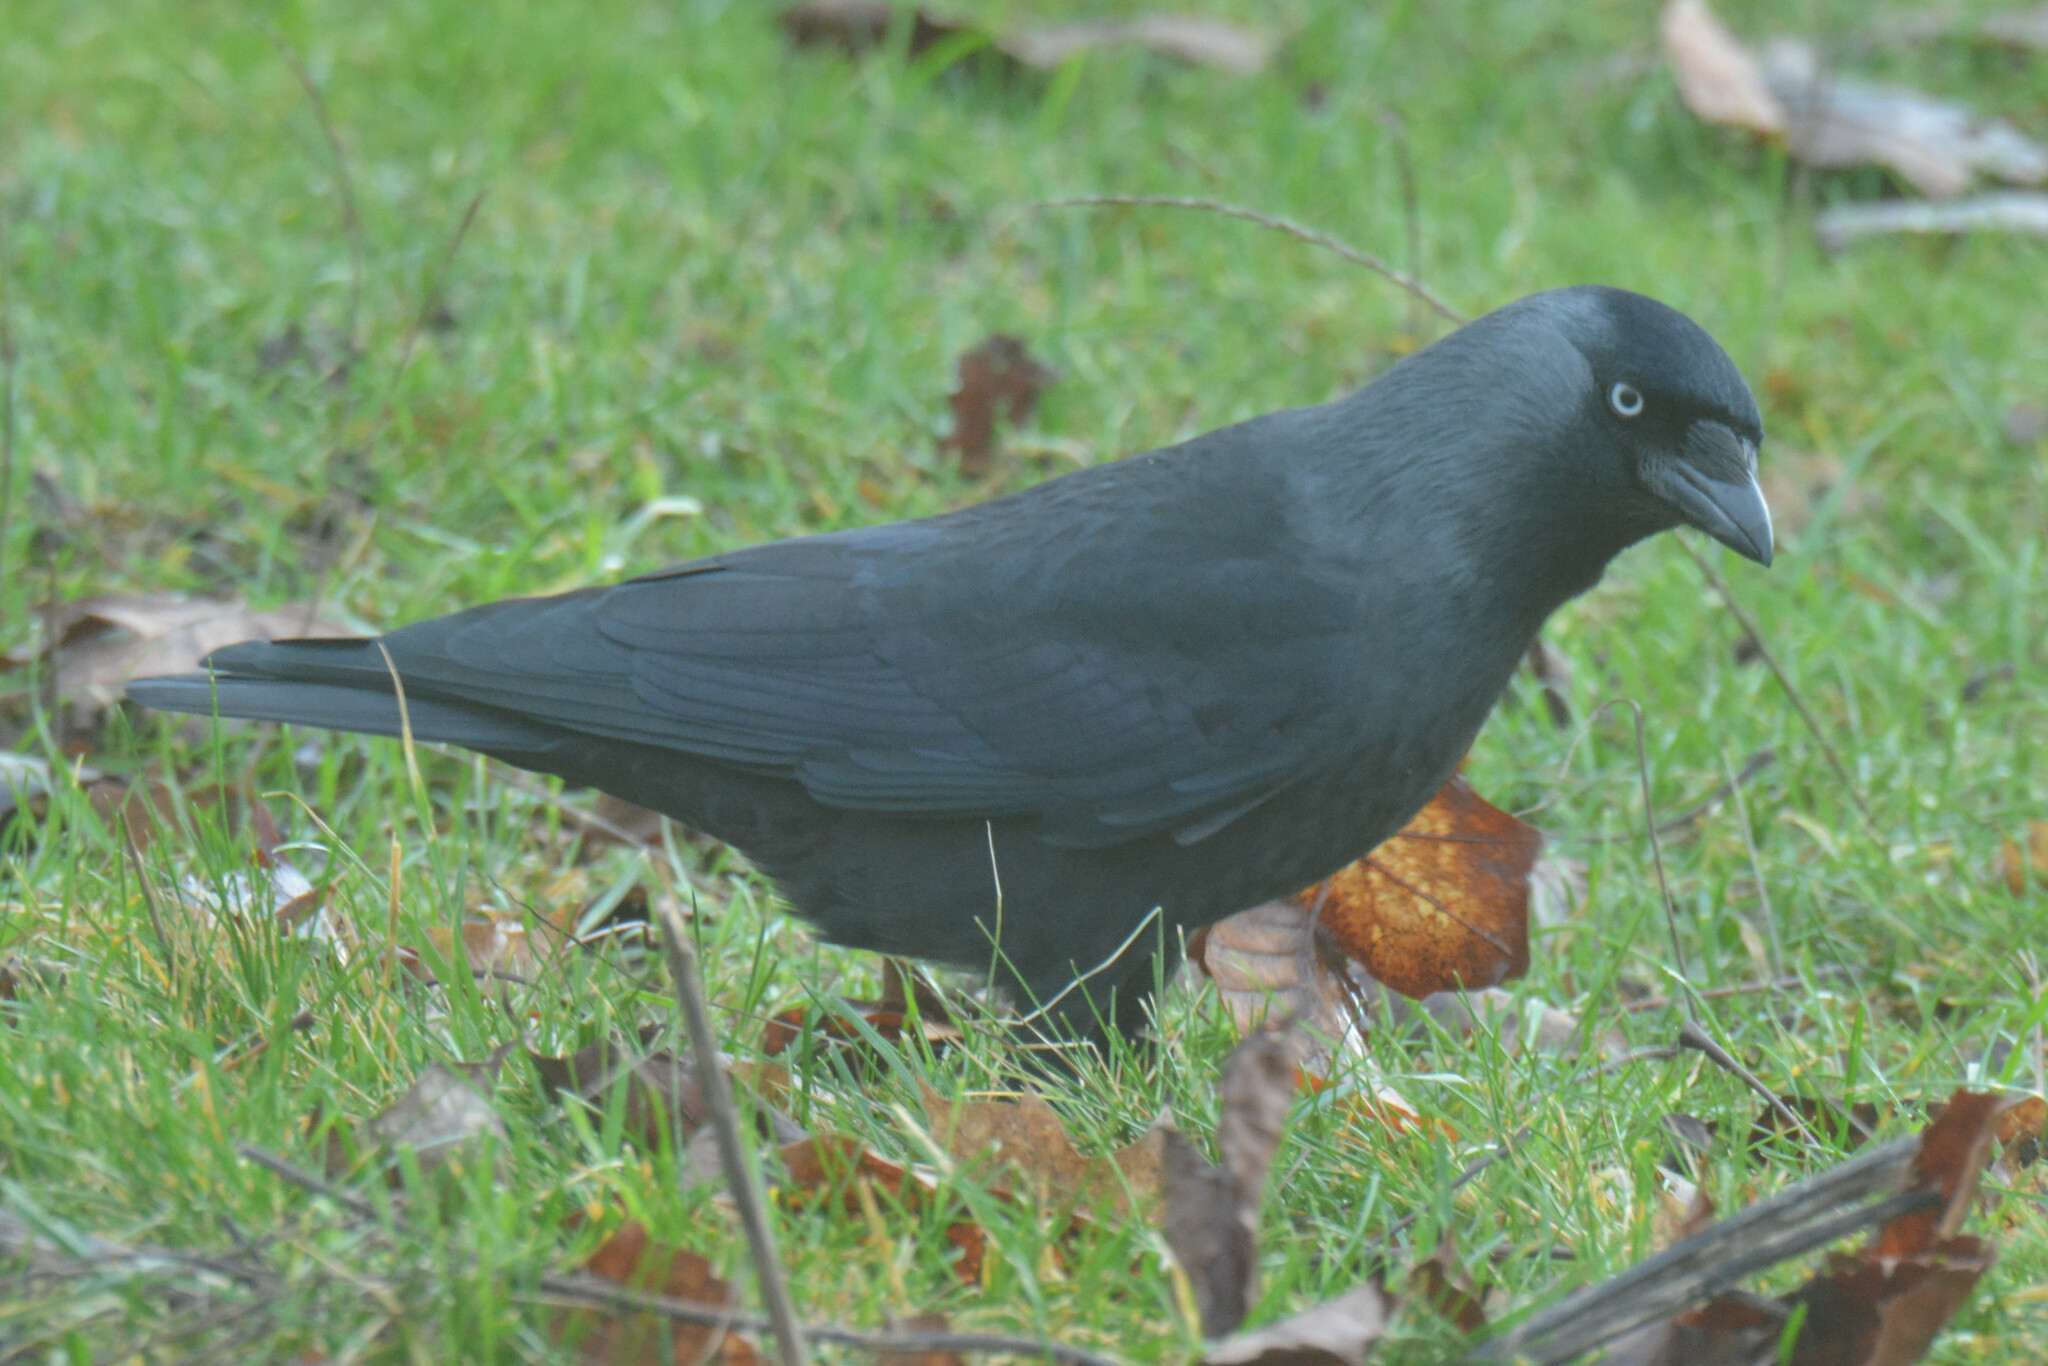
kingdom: Animalia
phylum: Chordata
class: Aves
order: Passeriformes
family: Corvidae
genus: Coloeus
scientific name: Coloeus monedula
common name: Western jackdaw
